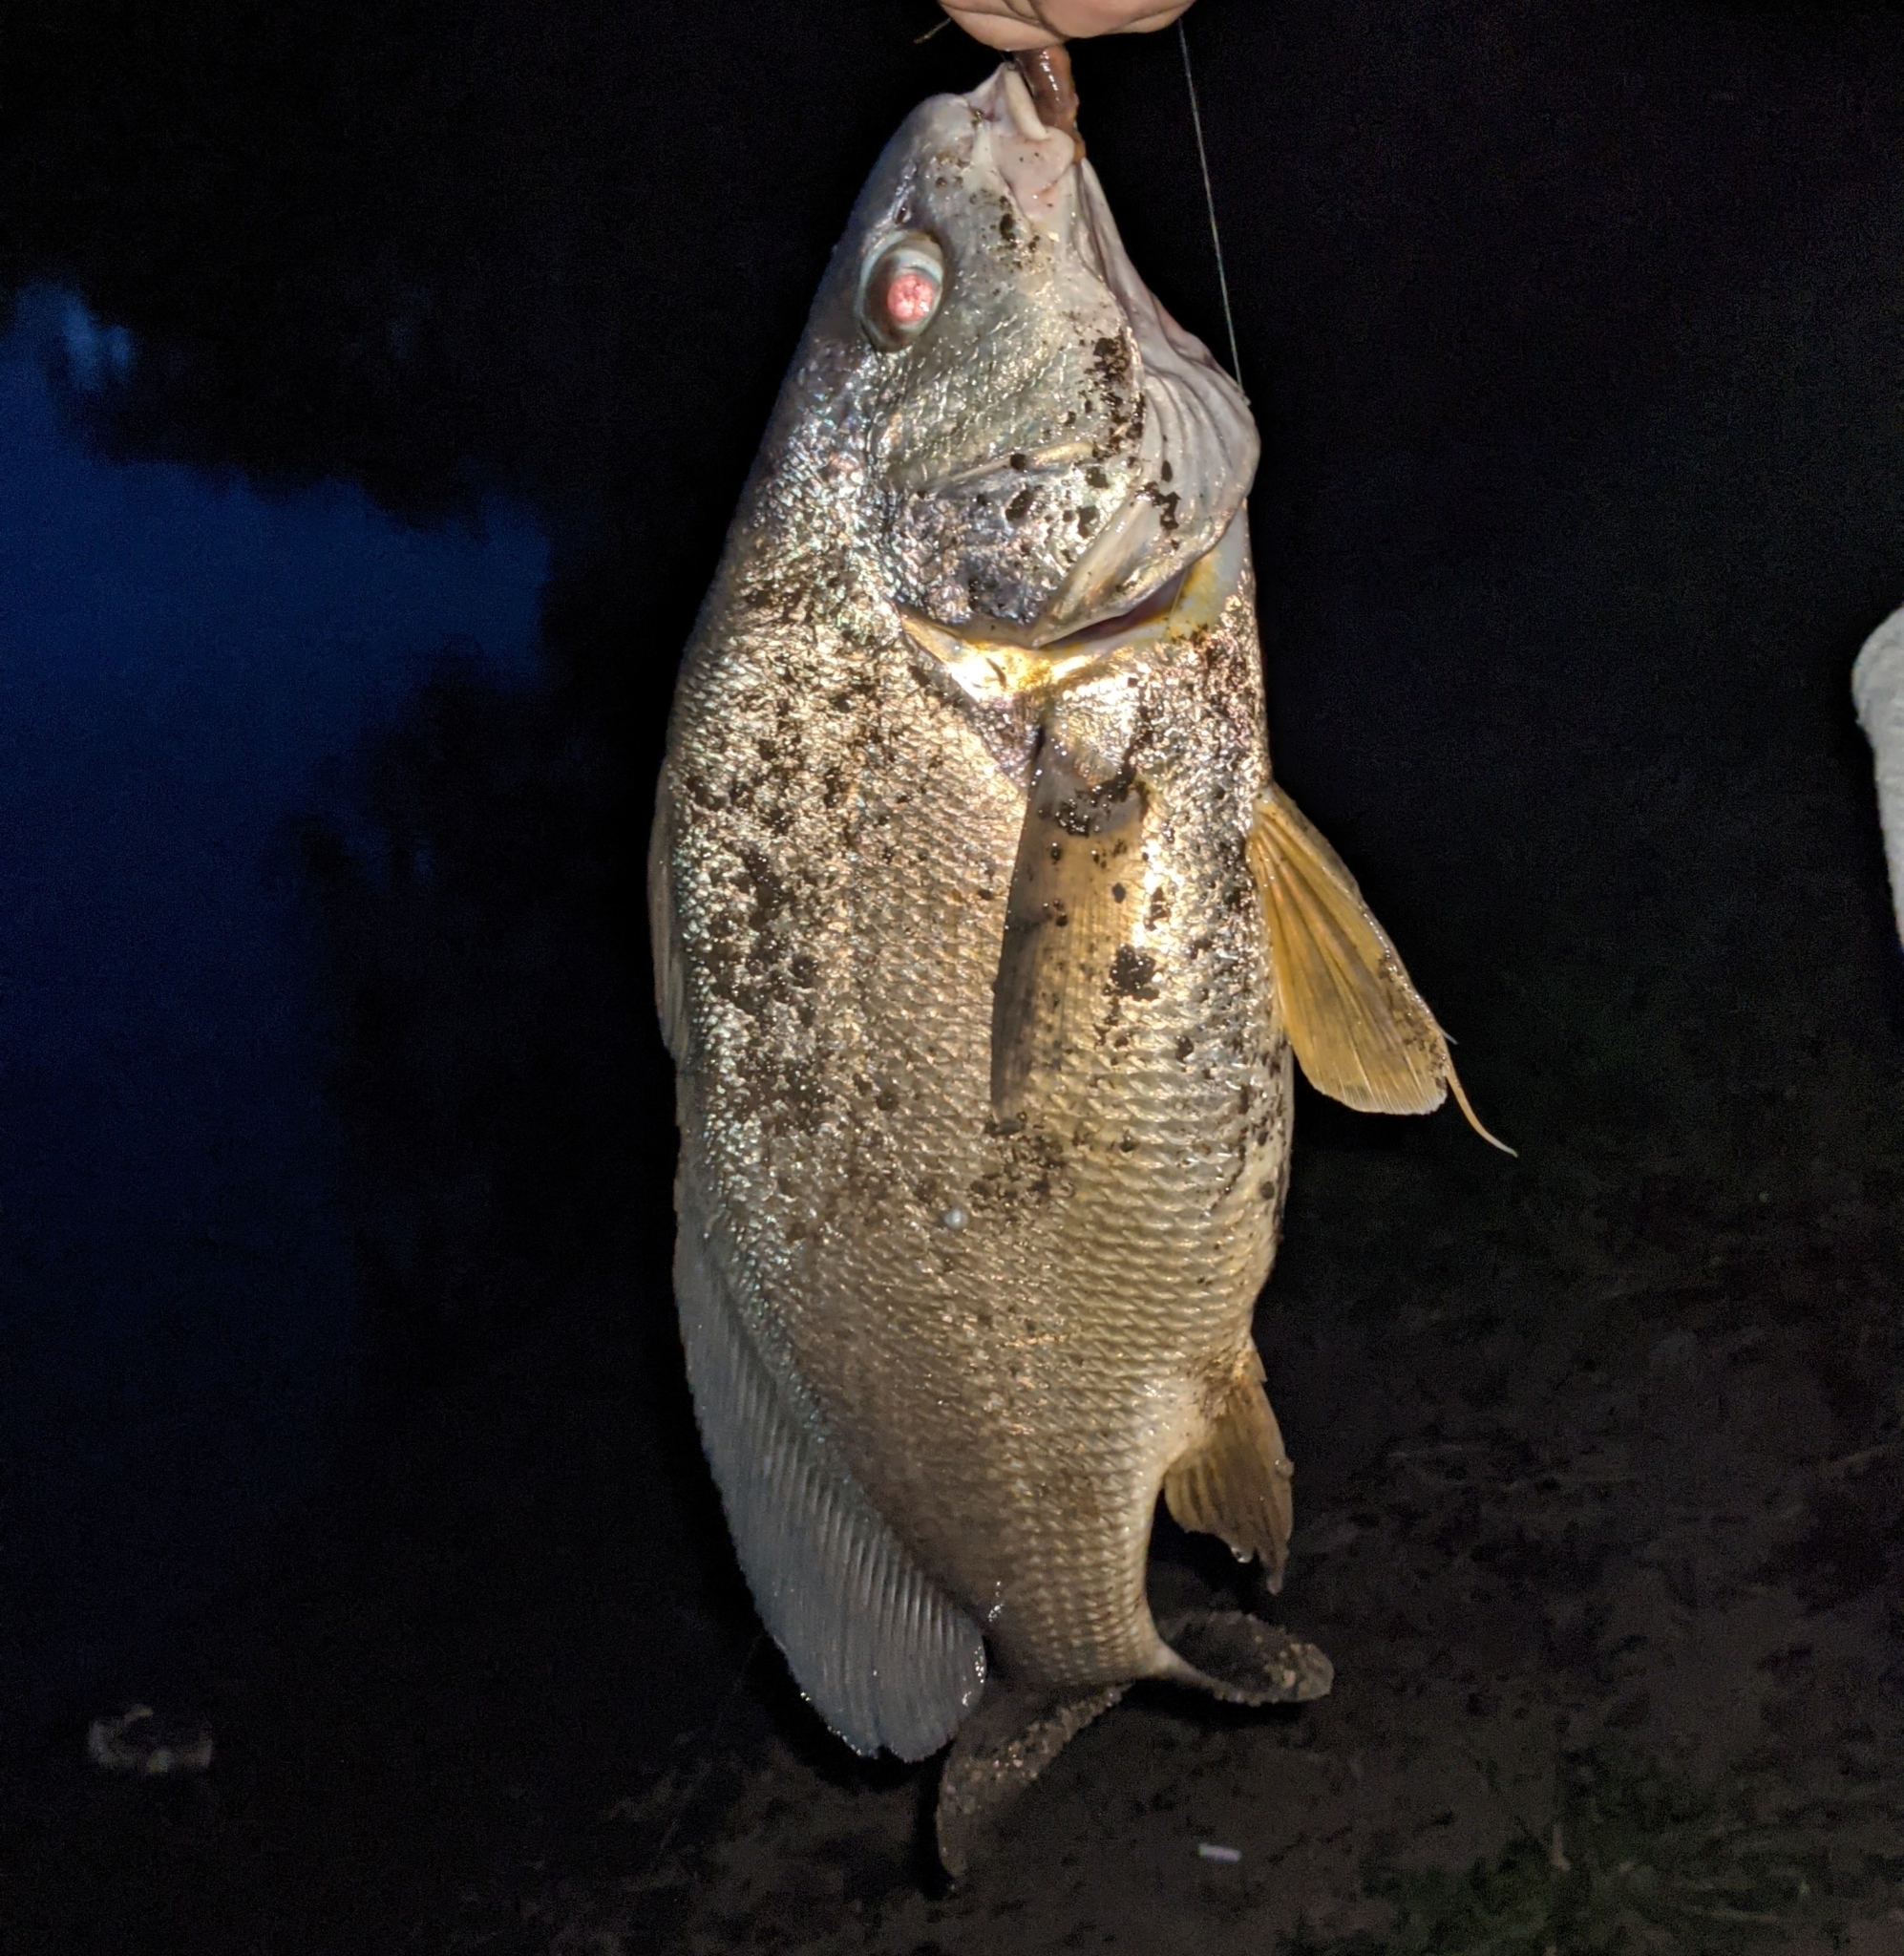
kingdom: Animalia
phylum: Chordata
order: Perciformes
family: Sciaenidae
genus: Aplodinotus
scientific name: Aplodinotus grunniens
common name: Freshwater drum
